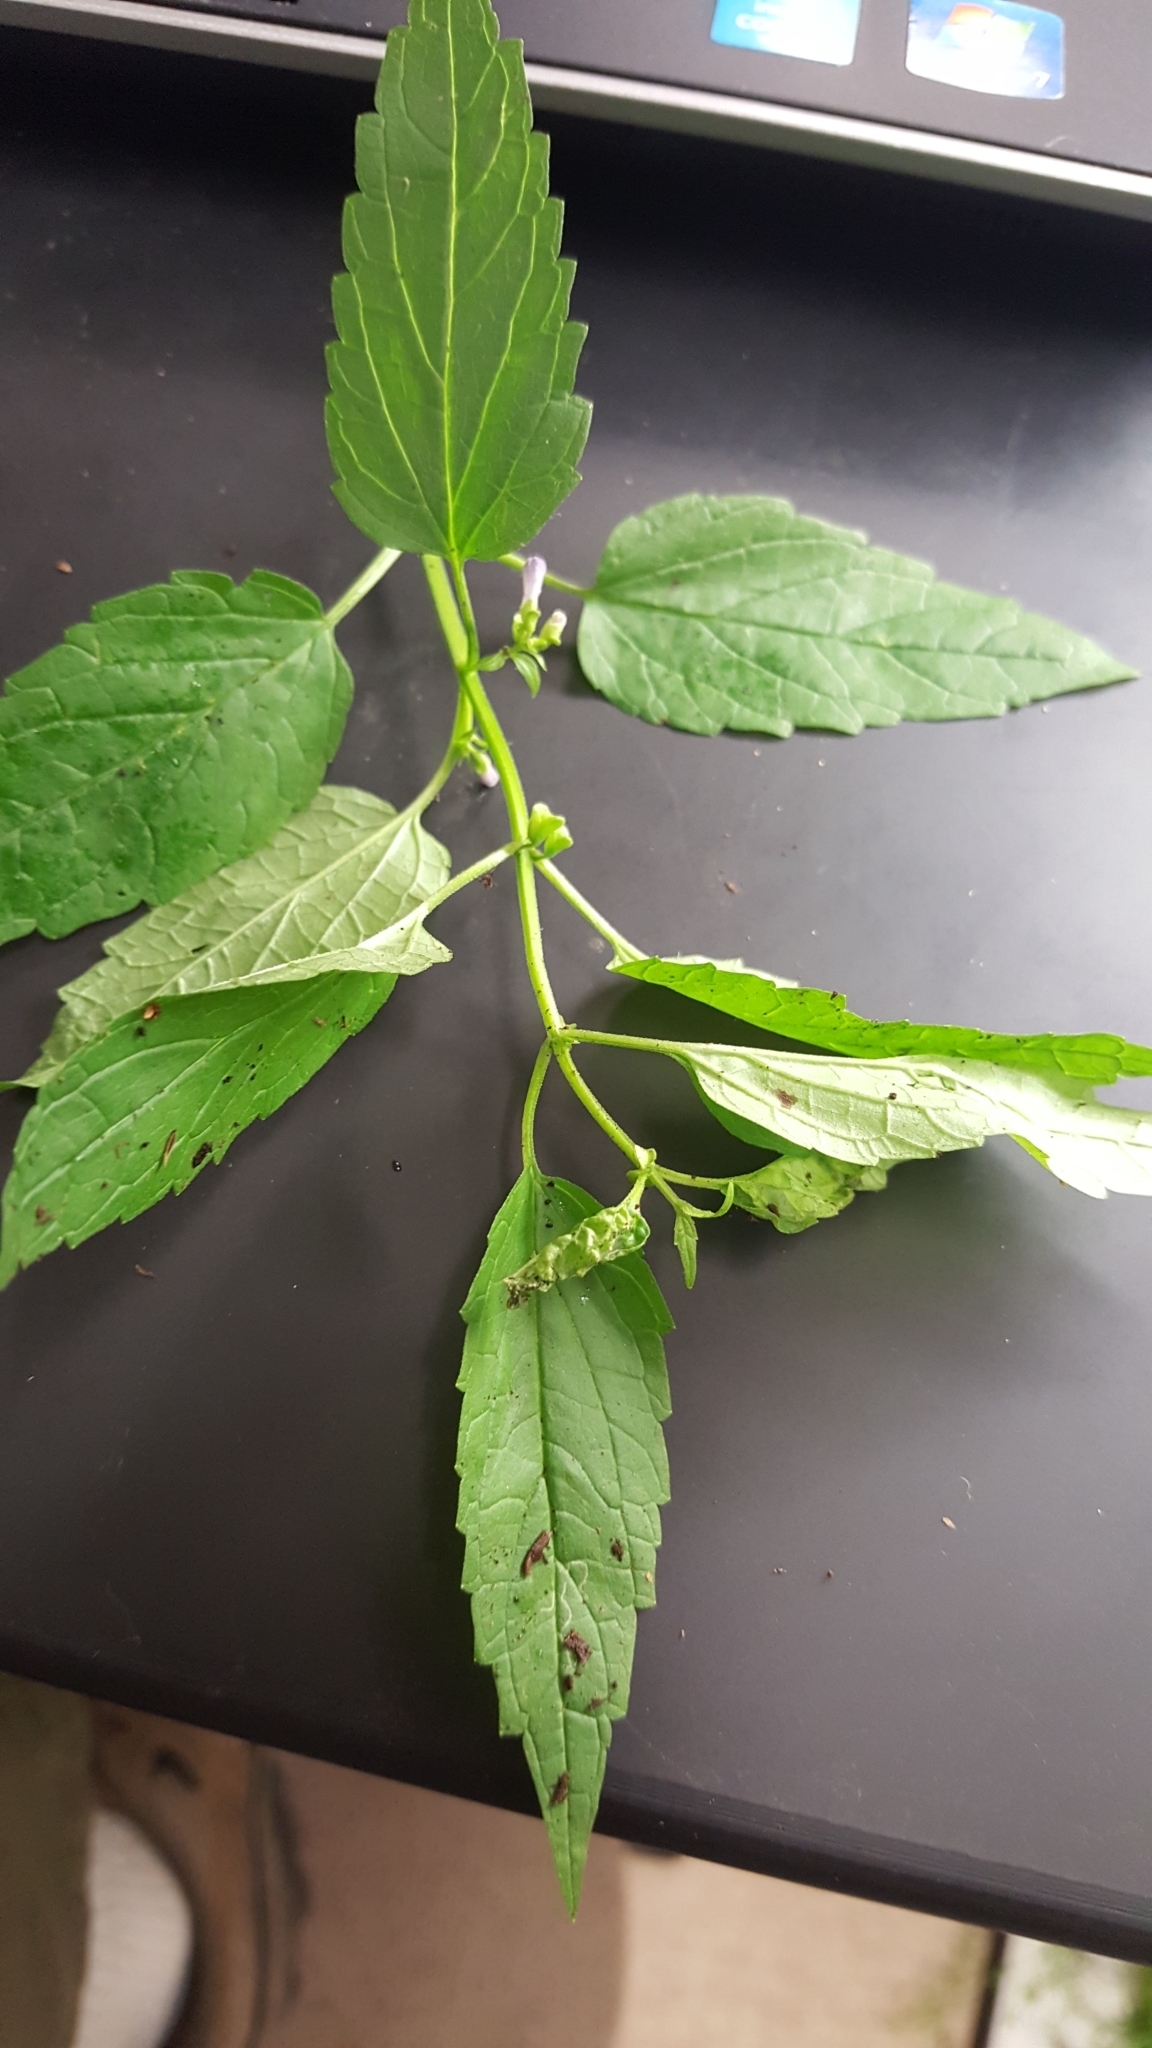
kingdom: Plantae
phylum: Tracheophyta
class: Magnoliopsida
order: Lamiales
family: Lamiaceae
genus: Scutellaria
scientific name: Scutellaria lateriflora
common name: Blue skullcap
